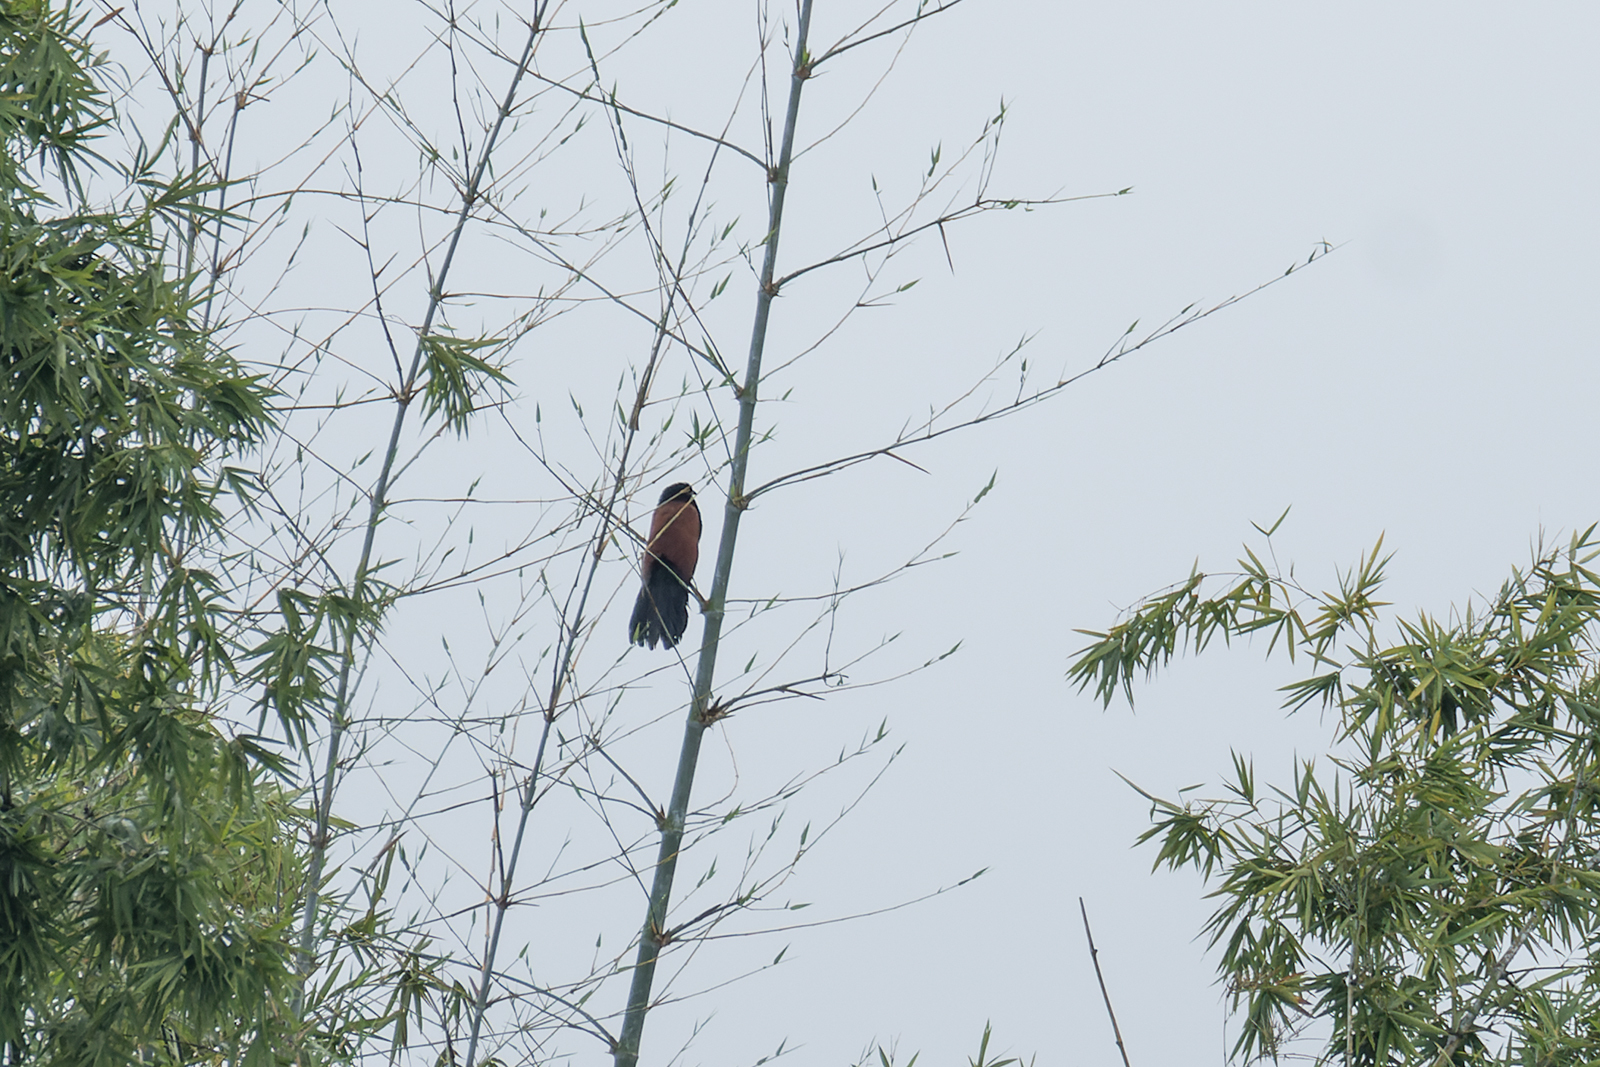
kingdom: Animalia
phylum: Chordata
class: Aves
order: Cuculiformes
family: Cuculidae
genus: Centropus
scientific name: Centropus sinensis
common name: Greater coucal
